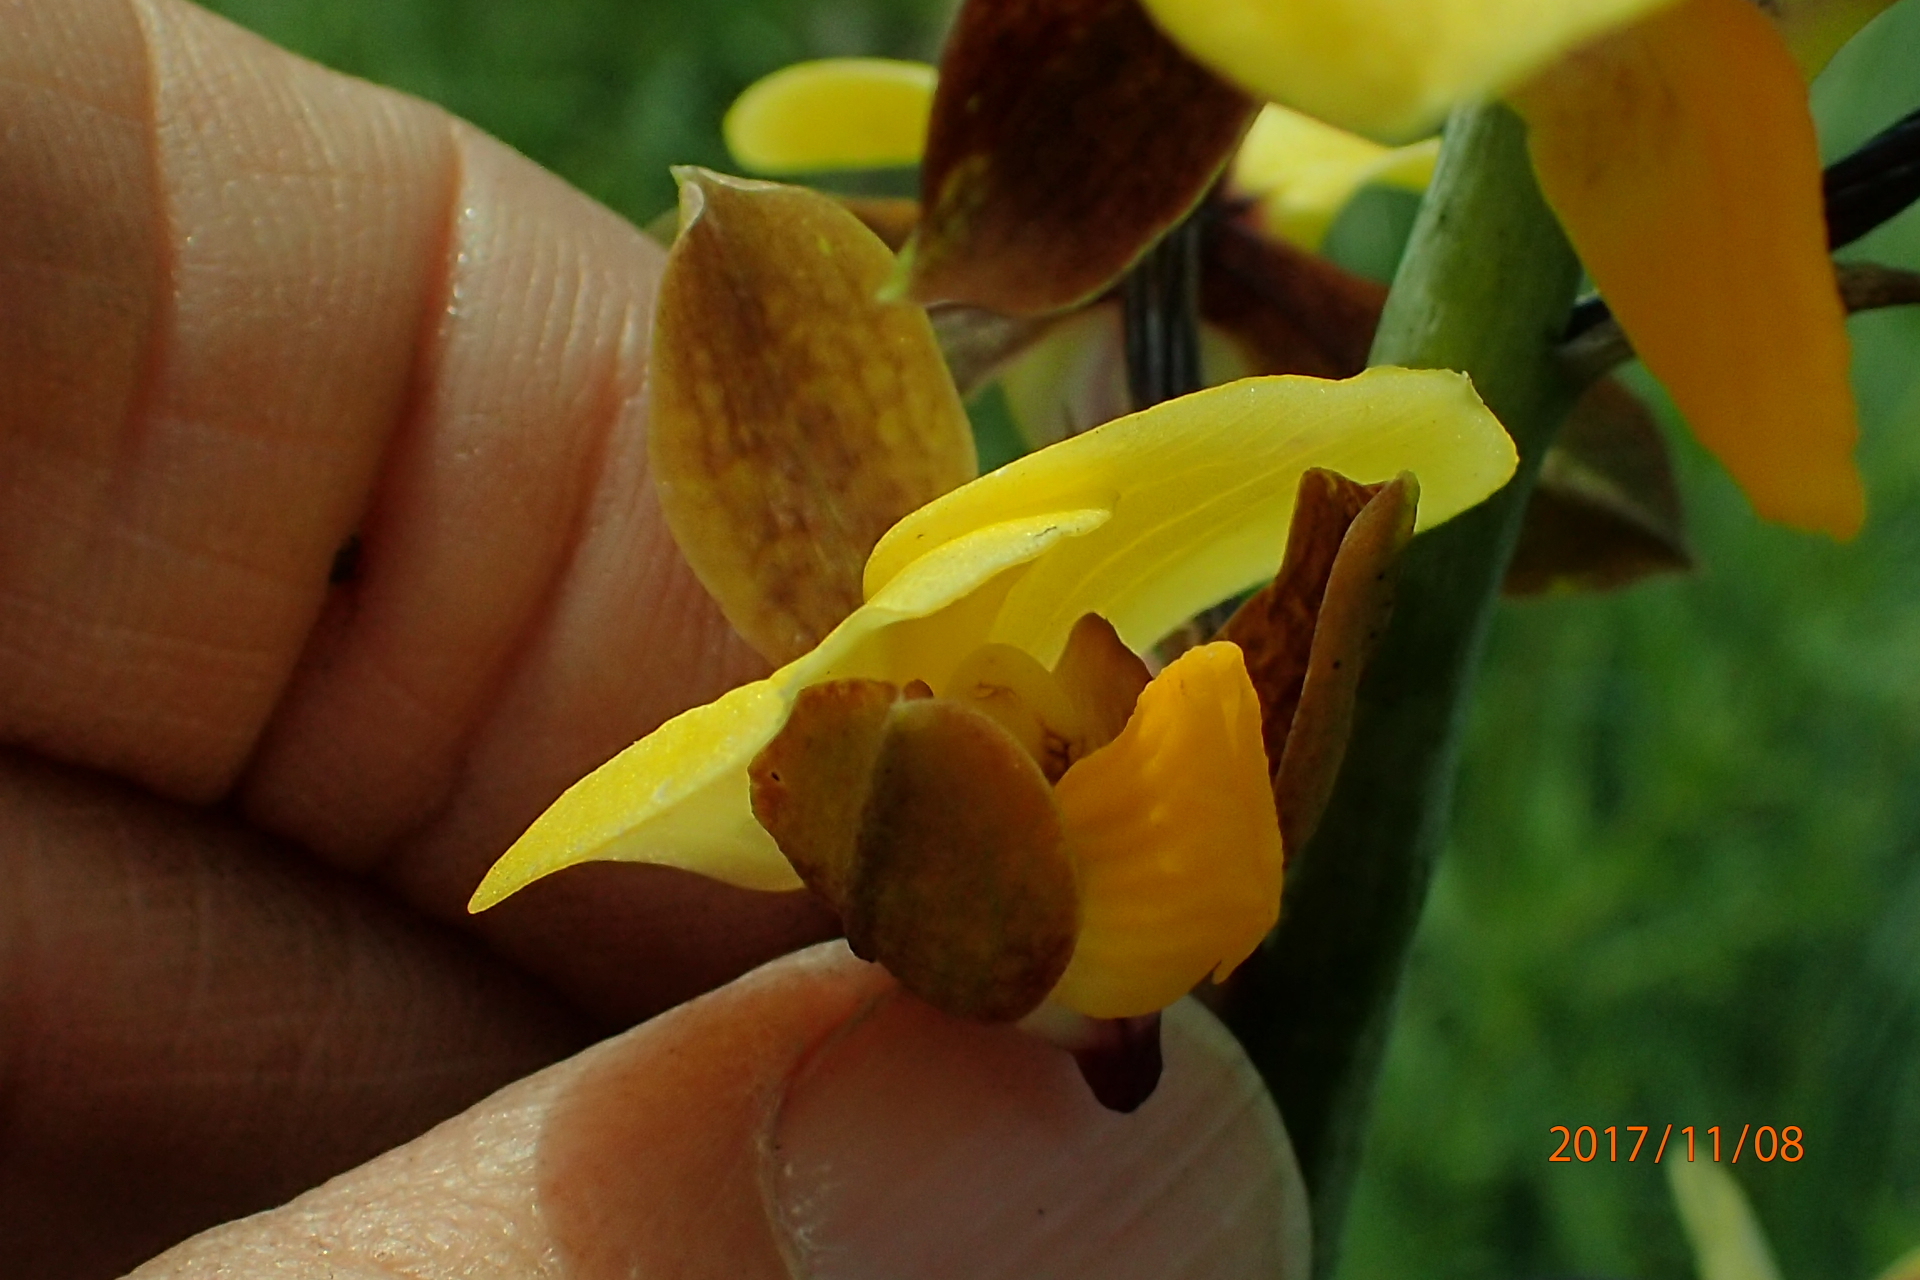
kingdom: Plantae
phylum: Tracheophyta
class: Liliopsida
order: Asparagales
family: Orchidaceae
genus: Eulophia
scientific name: Eulophia streptopetala
